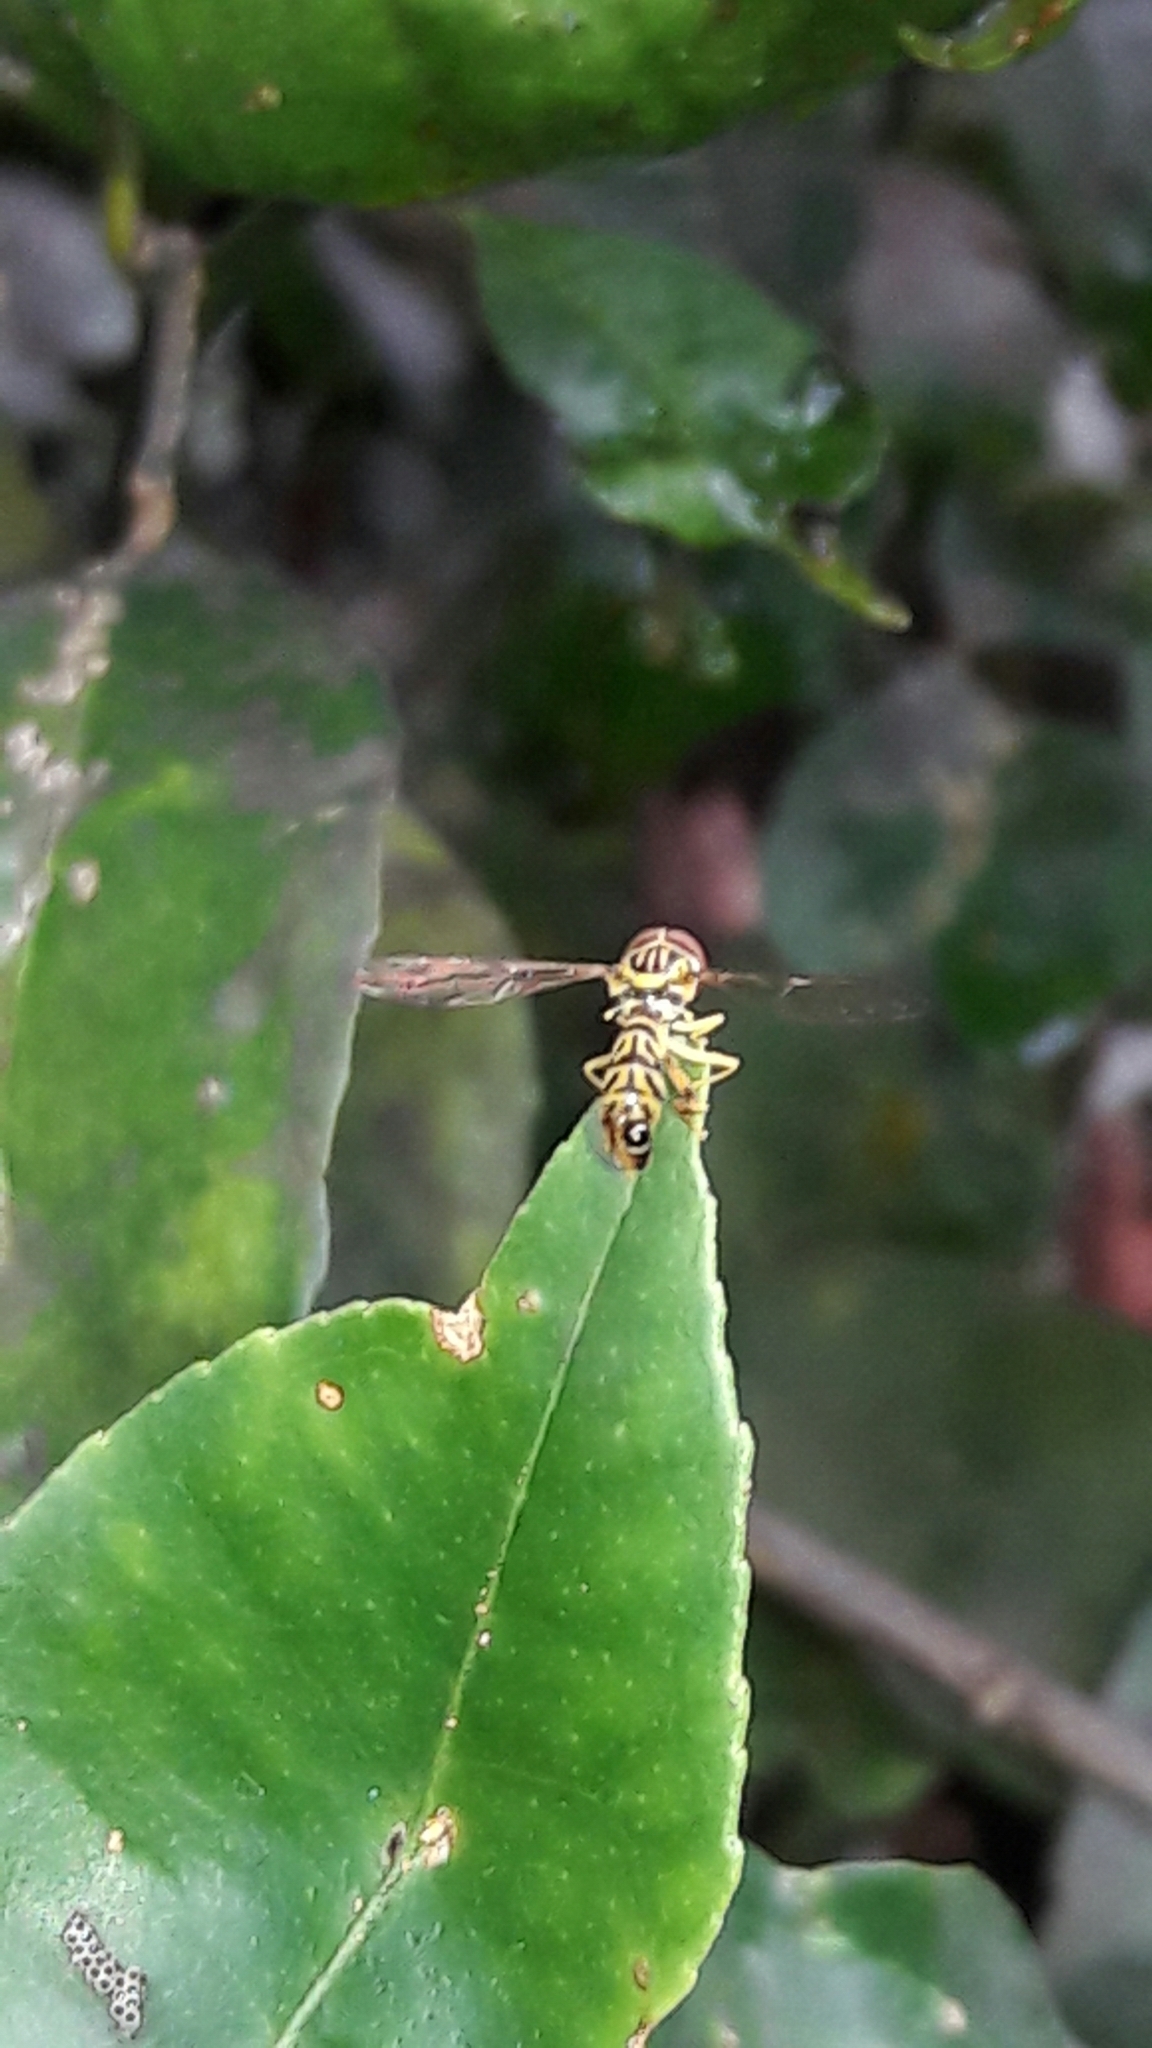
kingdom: Animalia
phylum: Arthropoda
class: Insecta
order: Diptera
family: Syrphidae
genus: Maiana
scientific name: Maiana callidus
